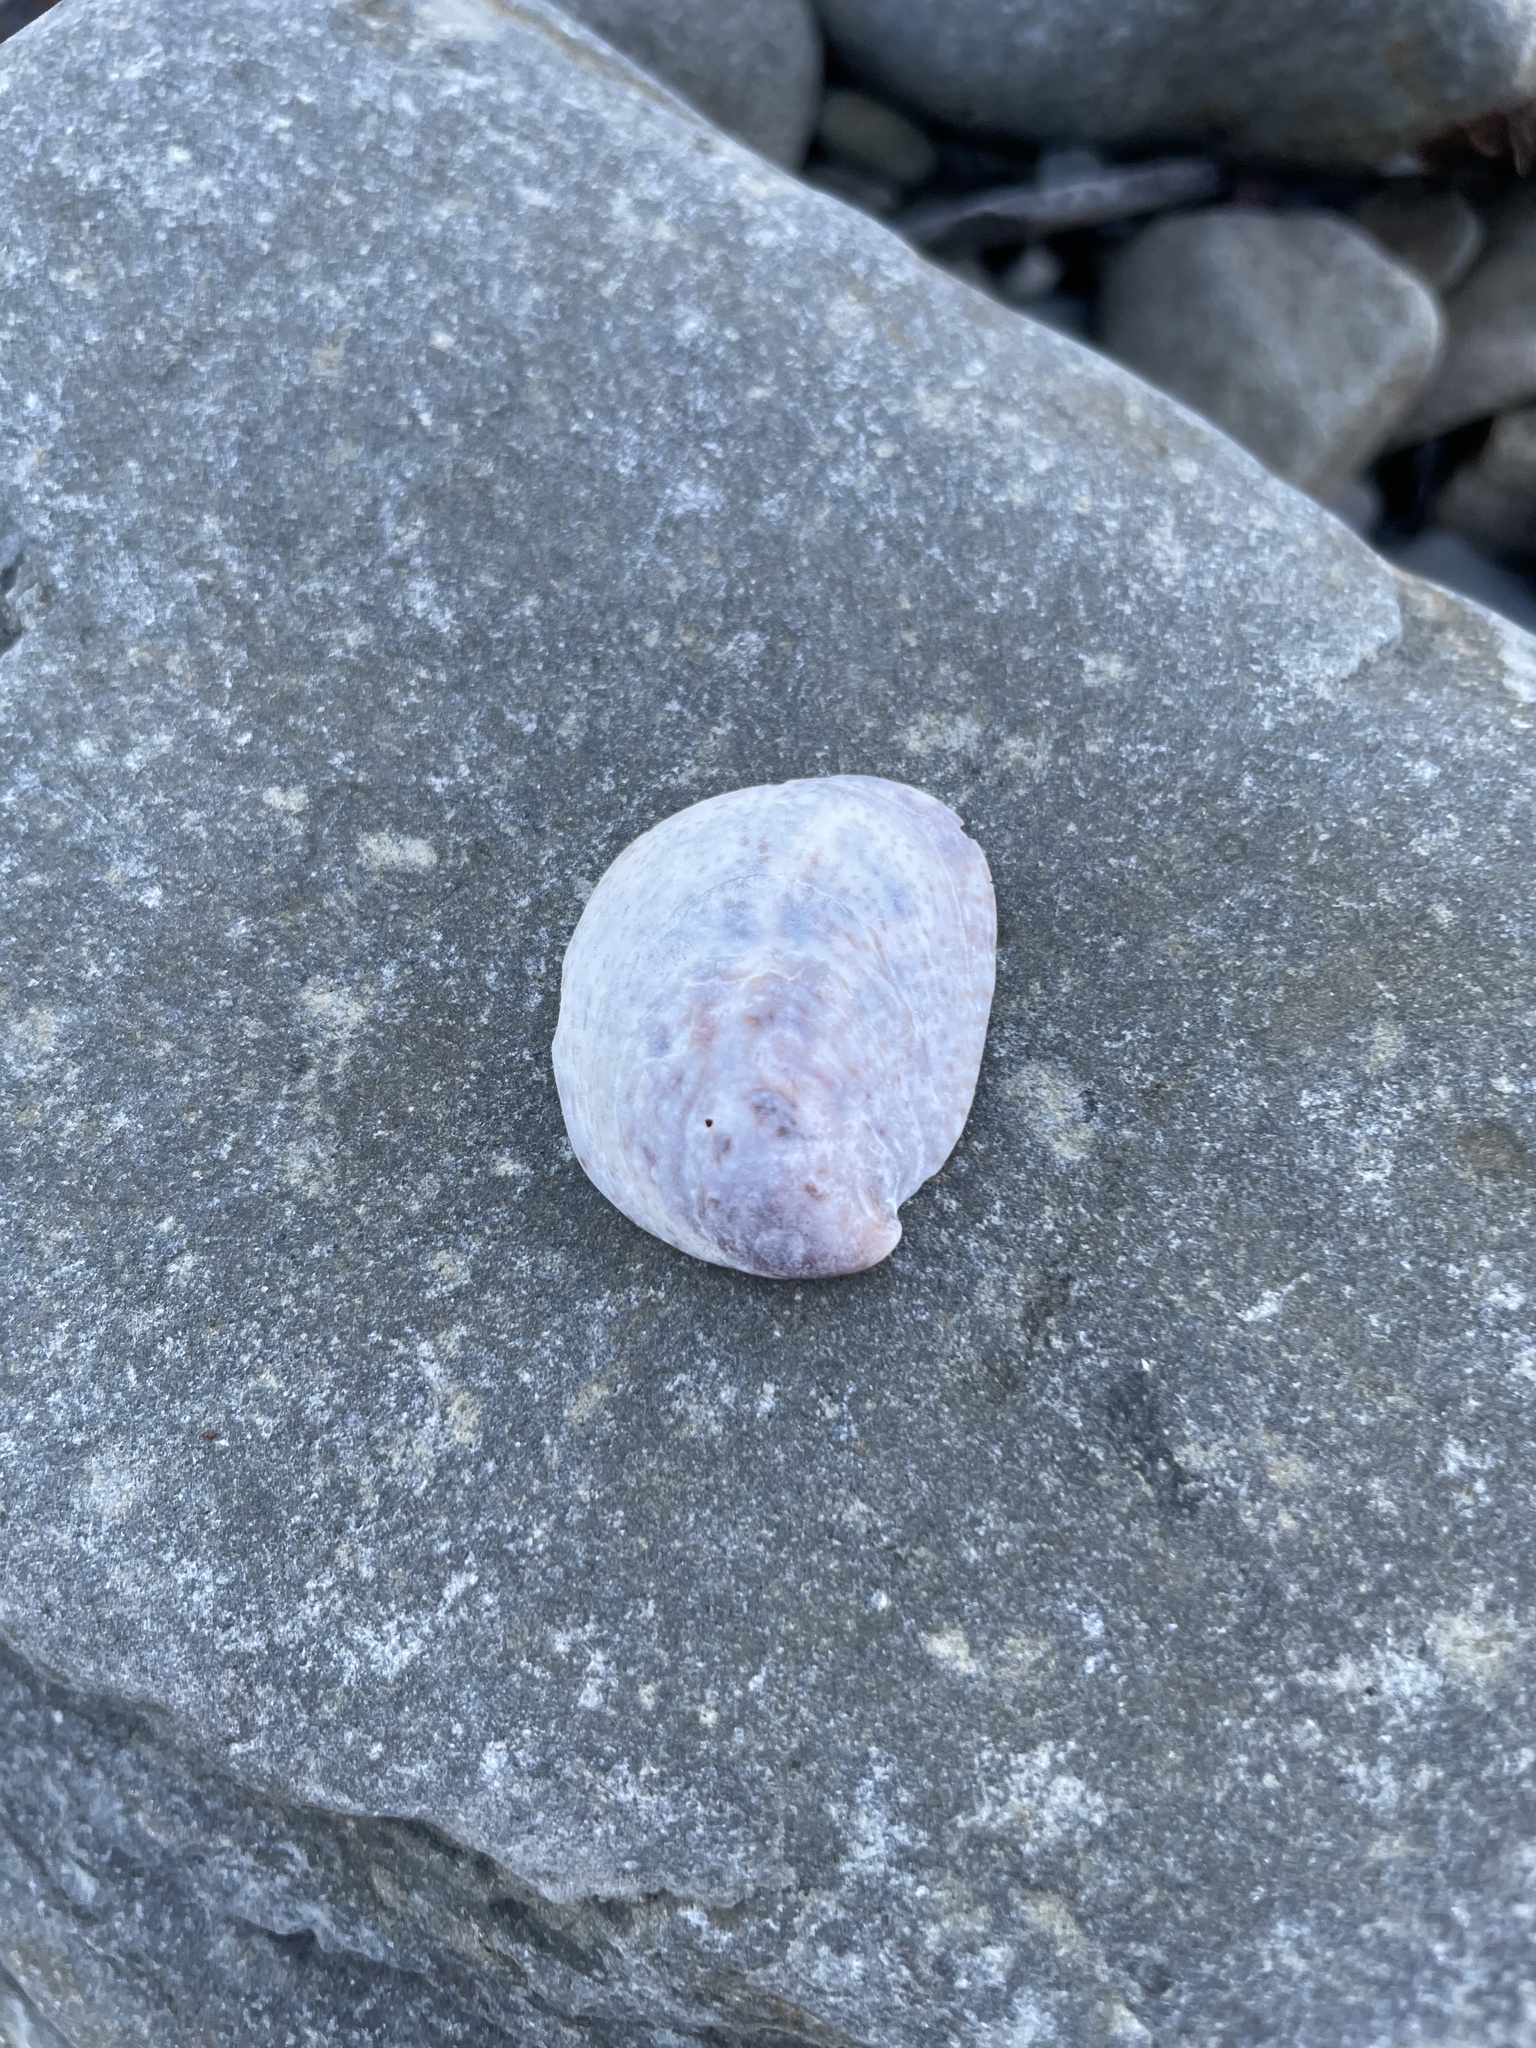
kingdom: Animalia
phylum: Mollusca
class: Gastropoda
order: Littorinimorpha
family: Calyptraeidae
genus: Crepidula
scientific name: Crepidula fornicata
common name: Slipper limpet
